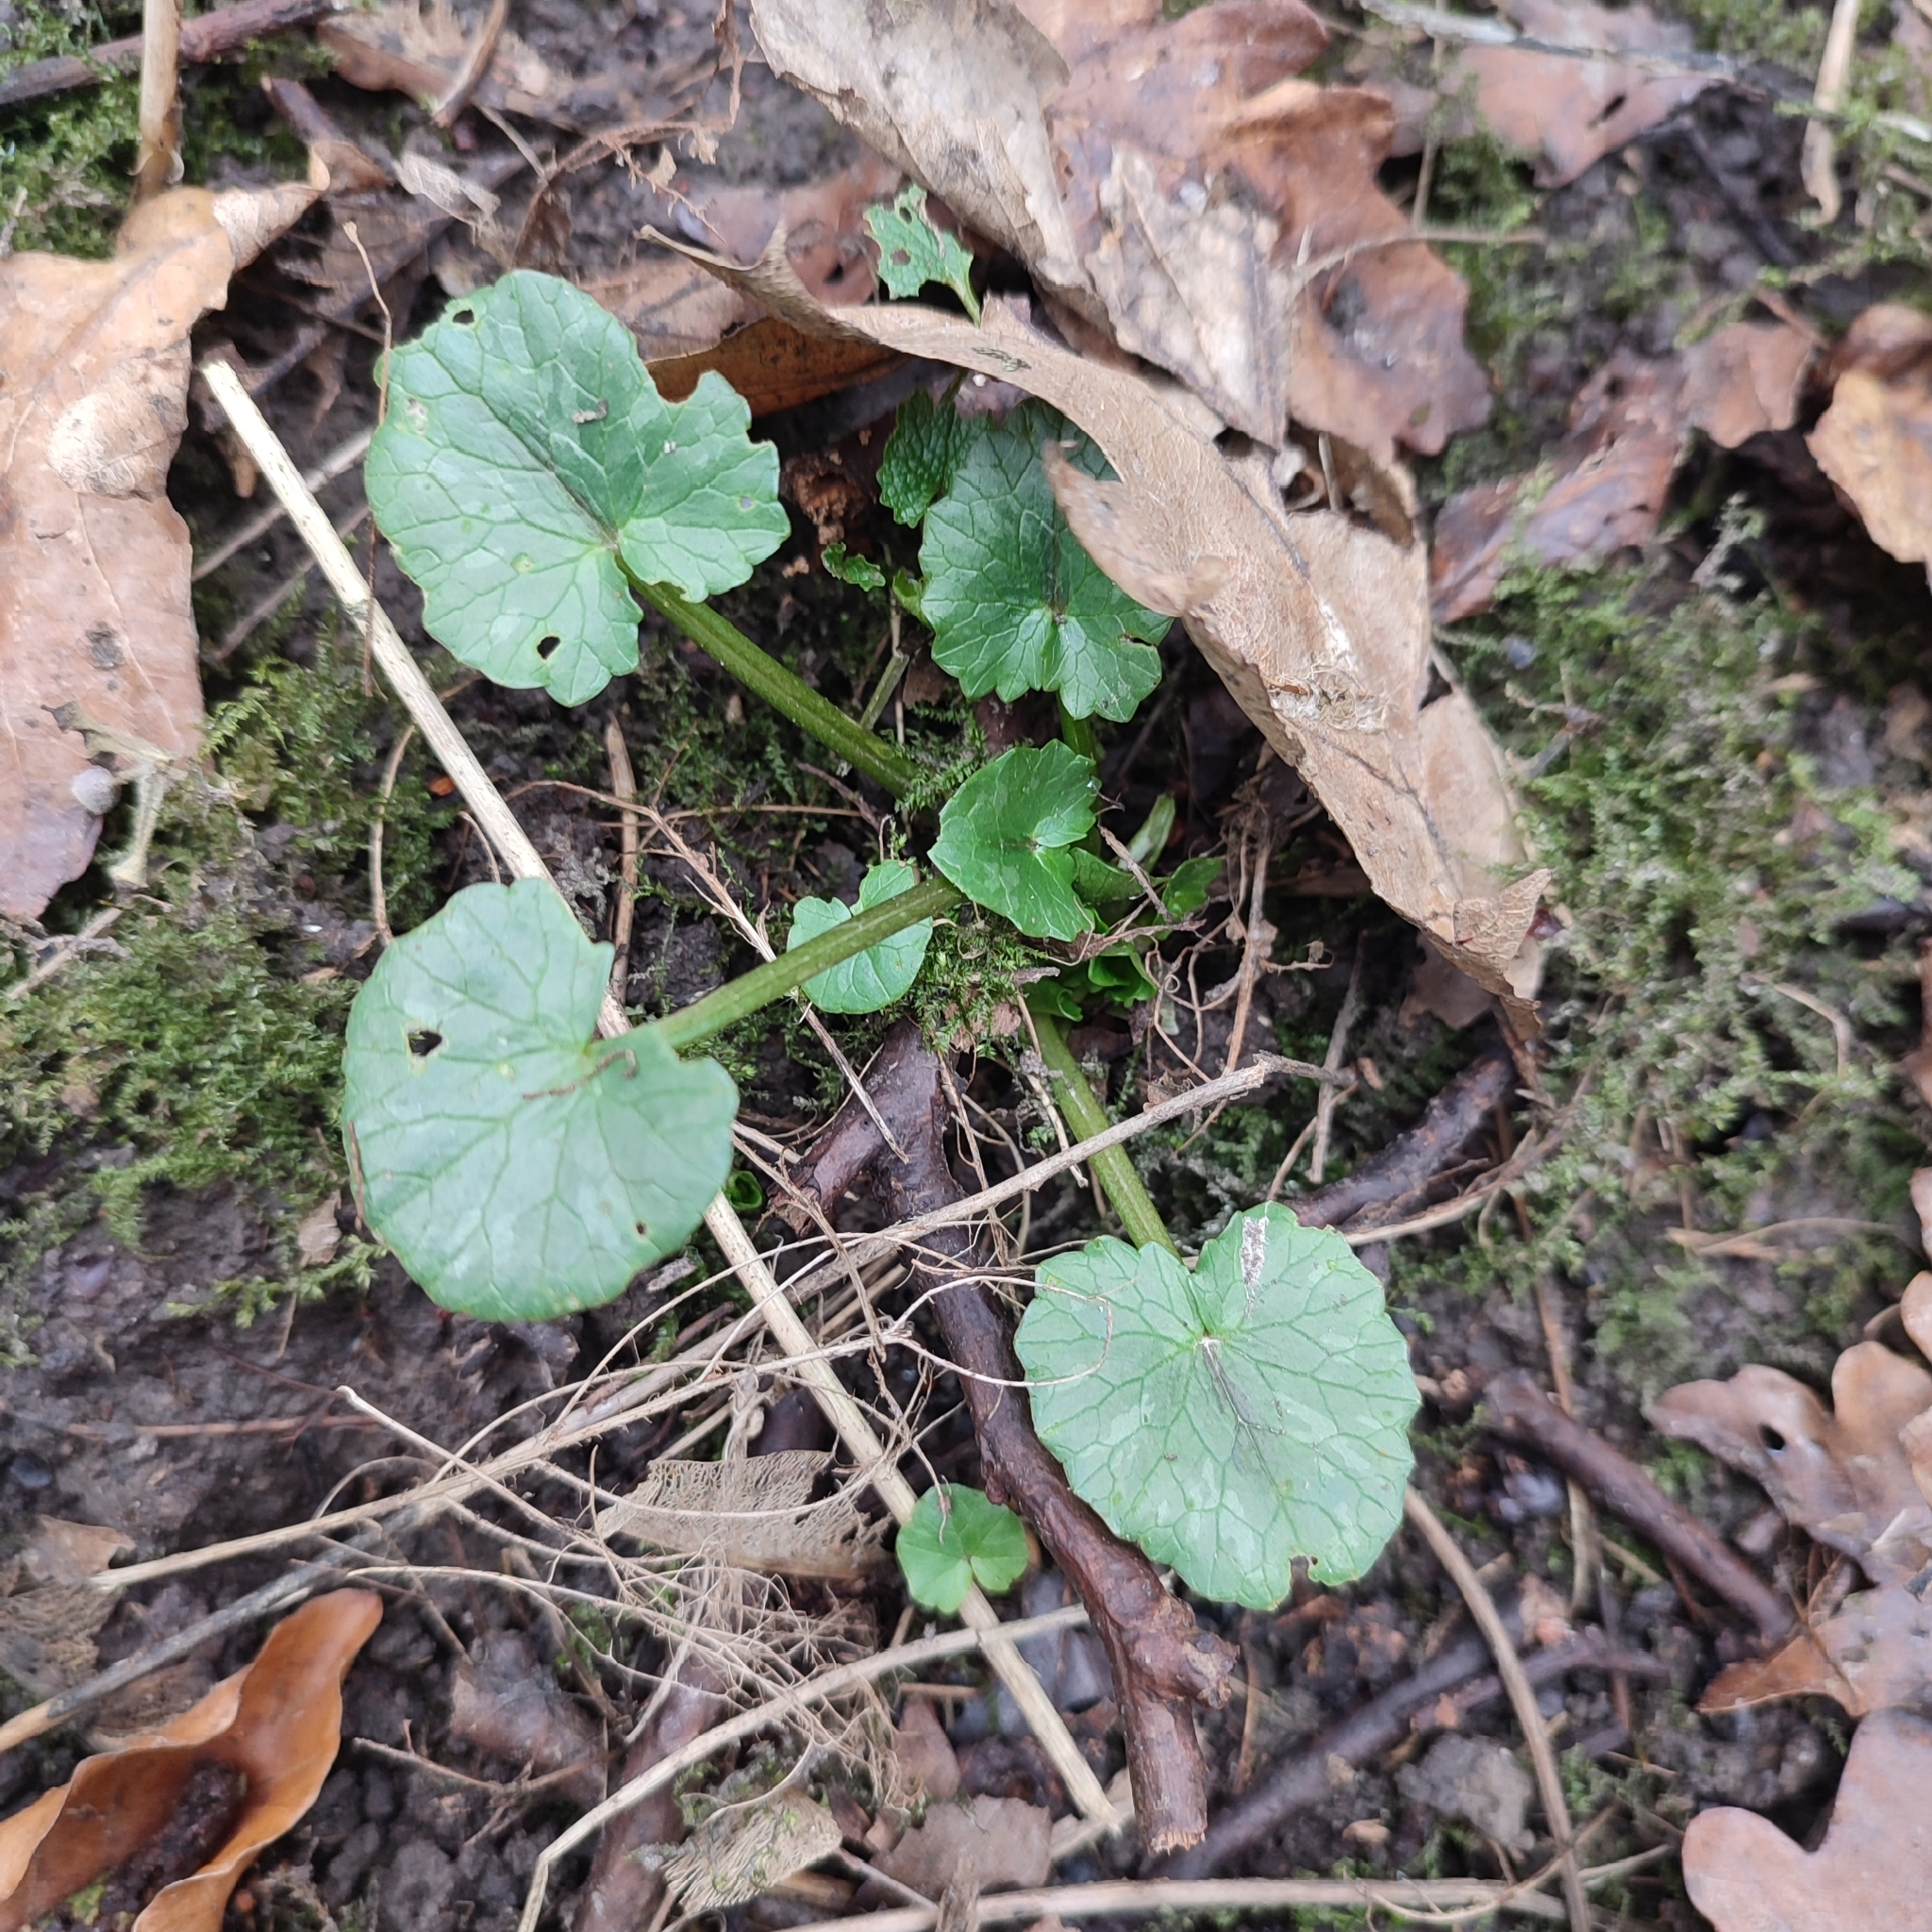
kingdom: Plantae
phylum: Tracheophyta
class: Magnoliopsida
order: Ranunculales
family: Ranunculaceae
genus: Ficaria
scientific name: Ficaria verna
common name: Lesser celandine
